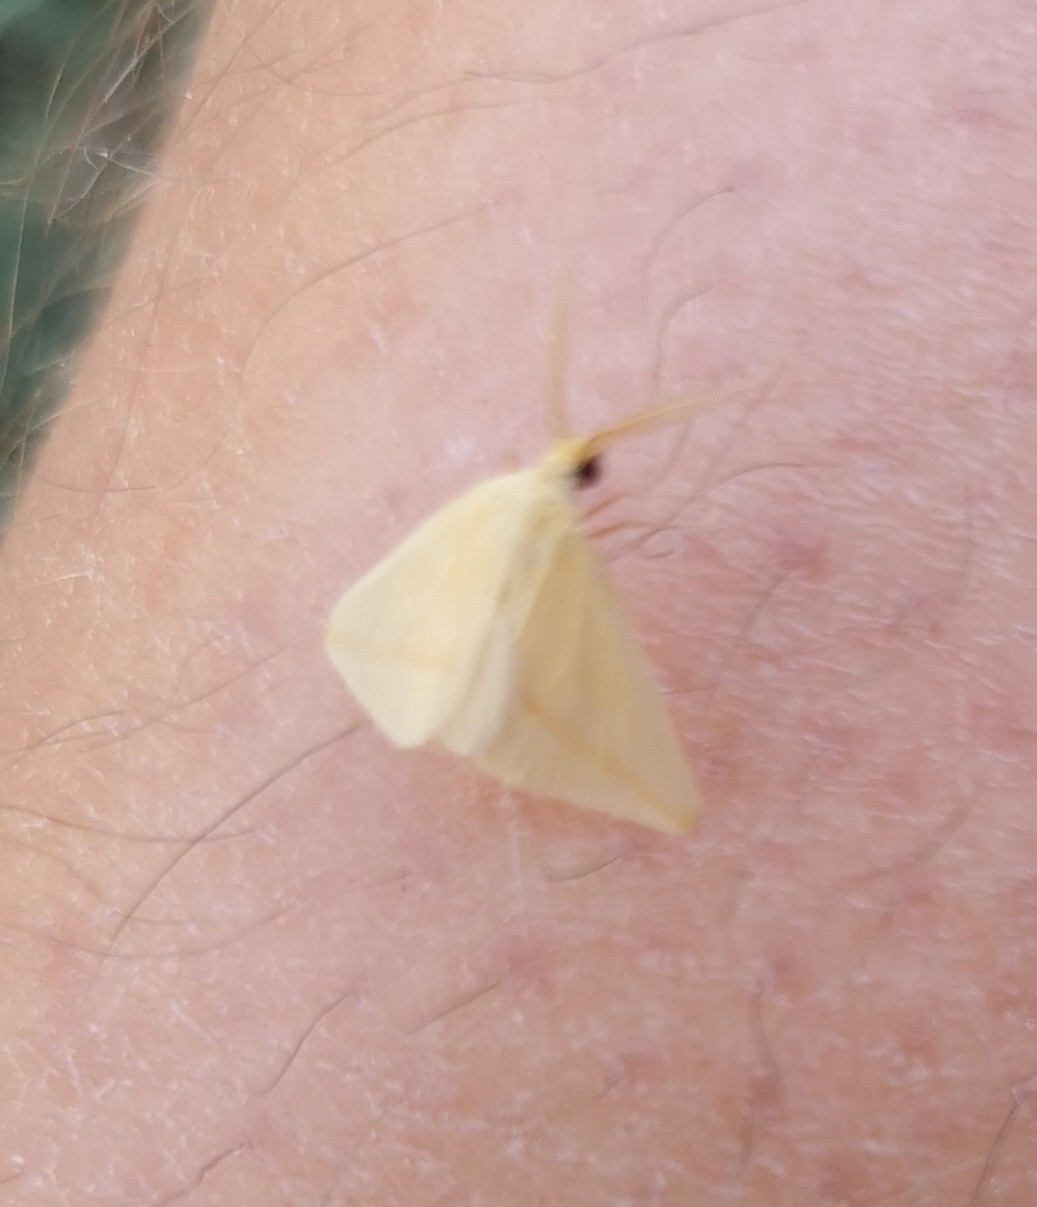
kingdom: Animalia
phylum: Arthropoda
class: Insecta
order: Lepidoptera
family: Geometridae
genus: Rhodometra
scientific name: Rhodometra sacraria
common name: Vestal
